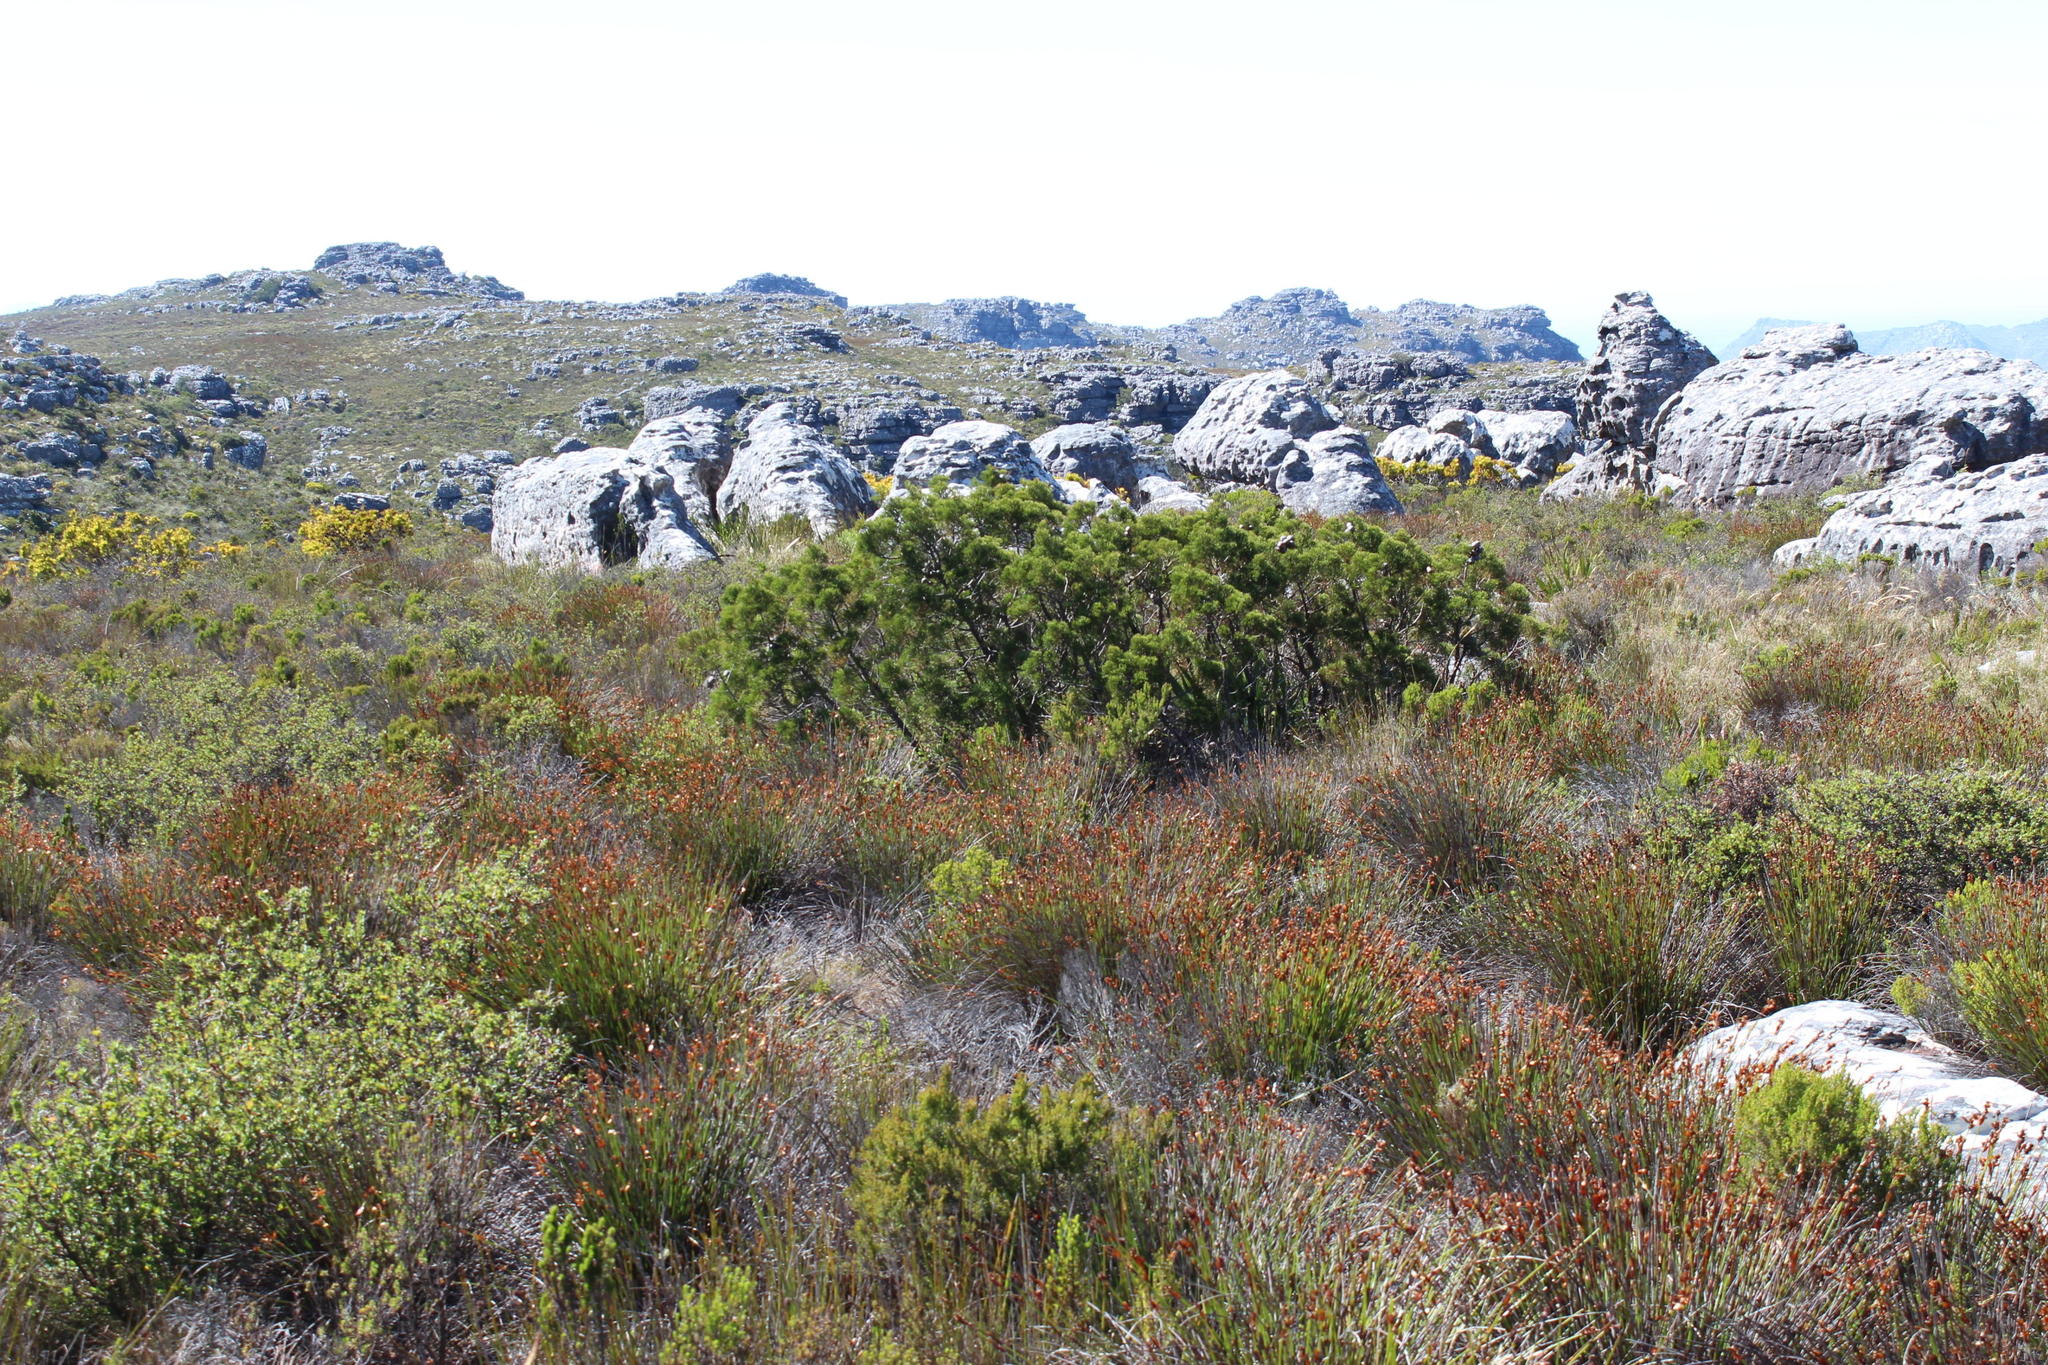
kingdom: Plantae
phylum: Tracheophyta
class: Pinopsida
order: Pinales
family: Cupressaceae
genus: Widdringtonia
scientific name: Widdringtonia nodiflora
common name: Cape cypress
